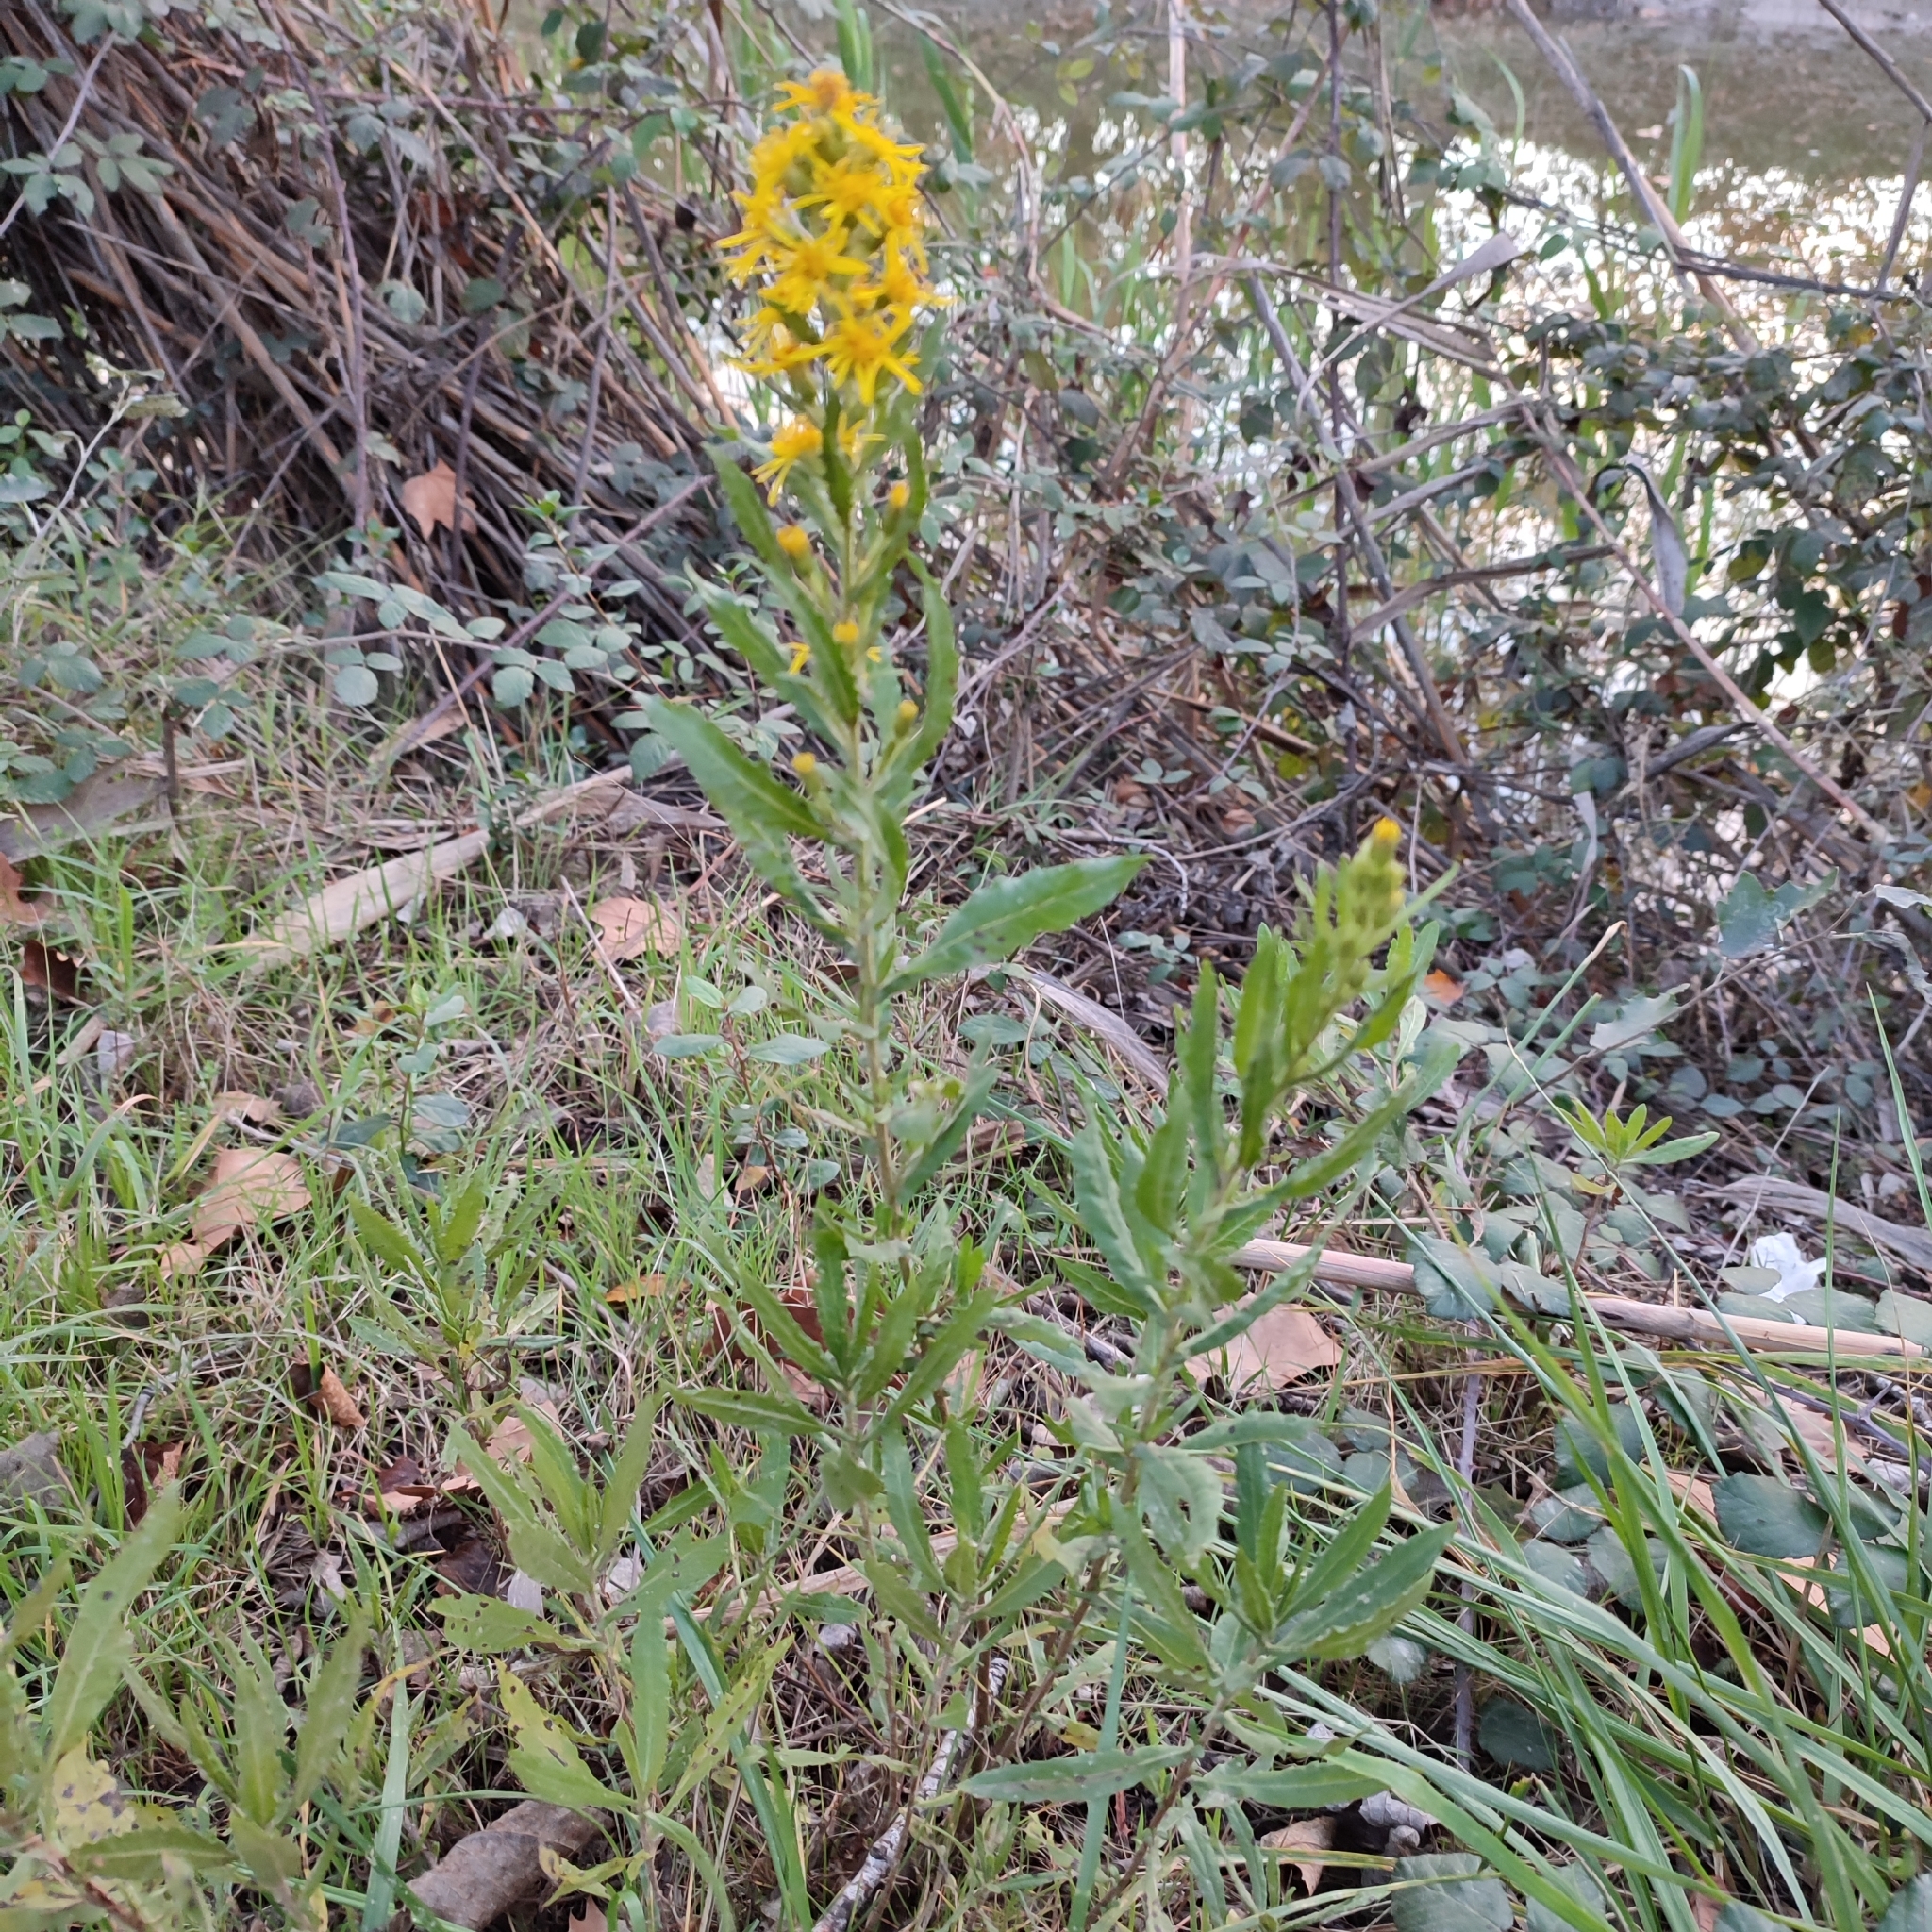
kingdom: Plantae
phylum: Tracheophyta
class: Magnoliopsida
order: Asterales
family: Asteraceae
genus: Dittrichia
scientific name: Dittrichia viscosa
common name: Woody fleabane
